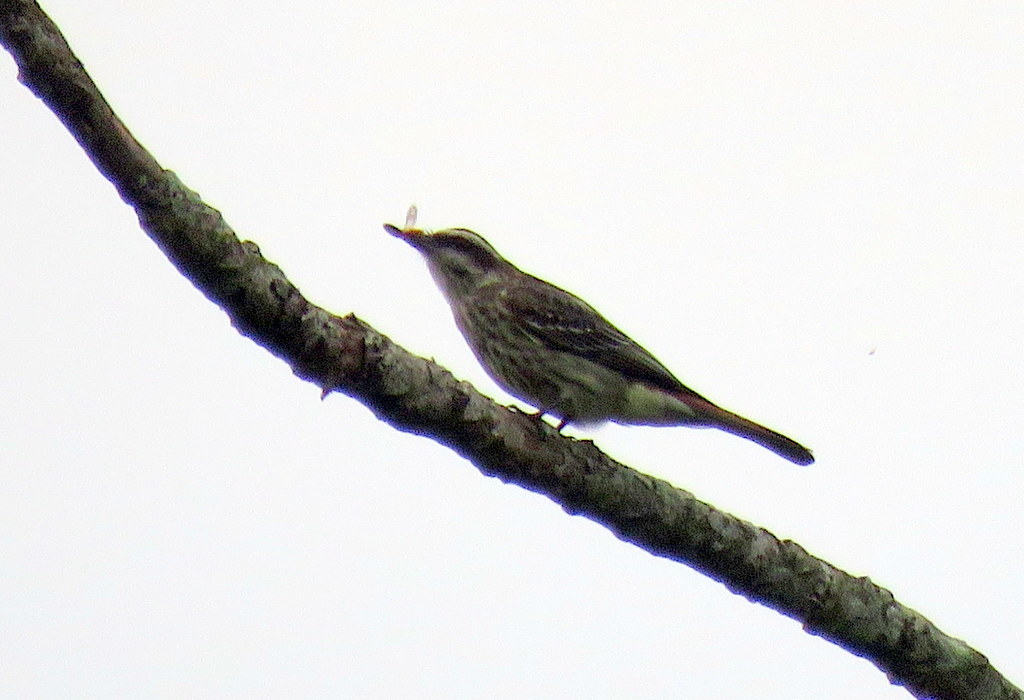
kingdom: Animalia
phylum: Chordata
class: Aves
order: Passeriformes
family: Tyrannidae
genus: Empidonomus
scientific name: Empidonomus varius
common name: Variegated flycatcher
